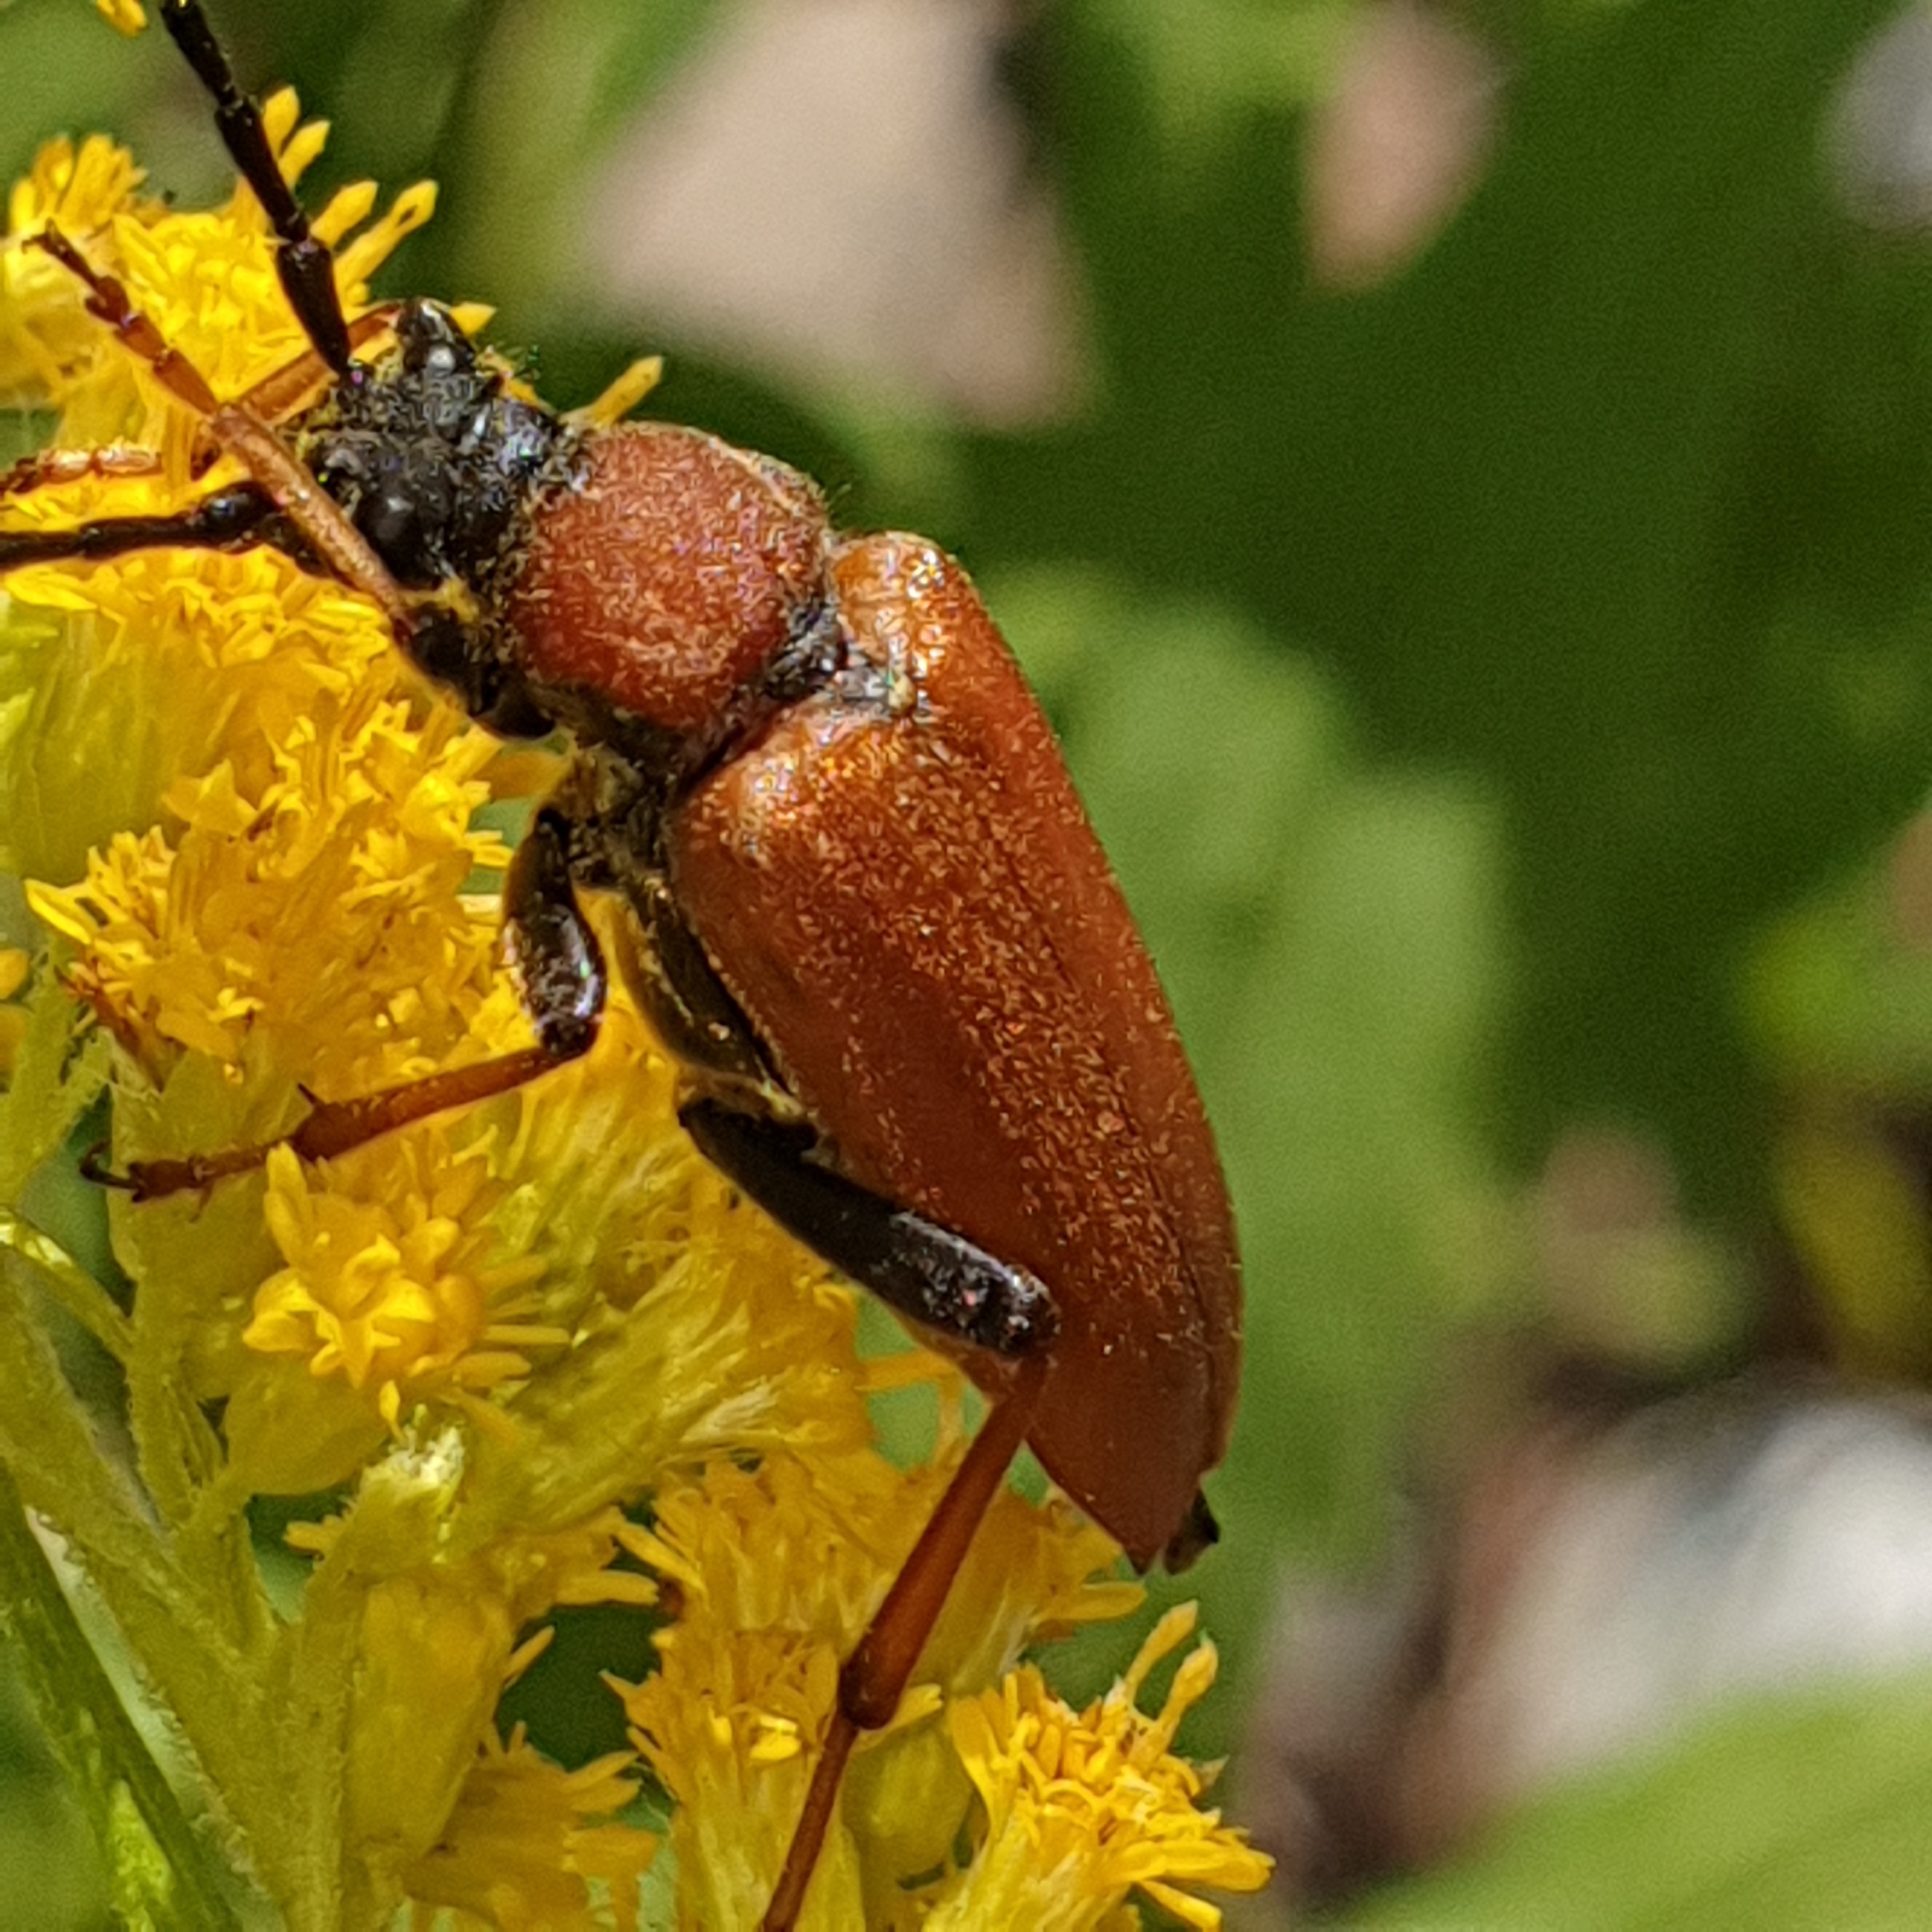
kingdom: Animalia
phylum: Arthropoda
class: Insecta
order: Coleoptera
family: Cerambycidae
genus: Stictoleptura
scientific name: Stictoleptura rubra
